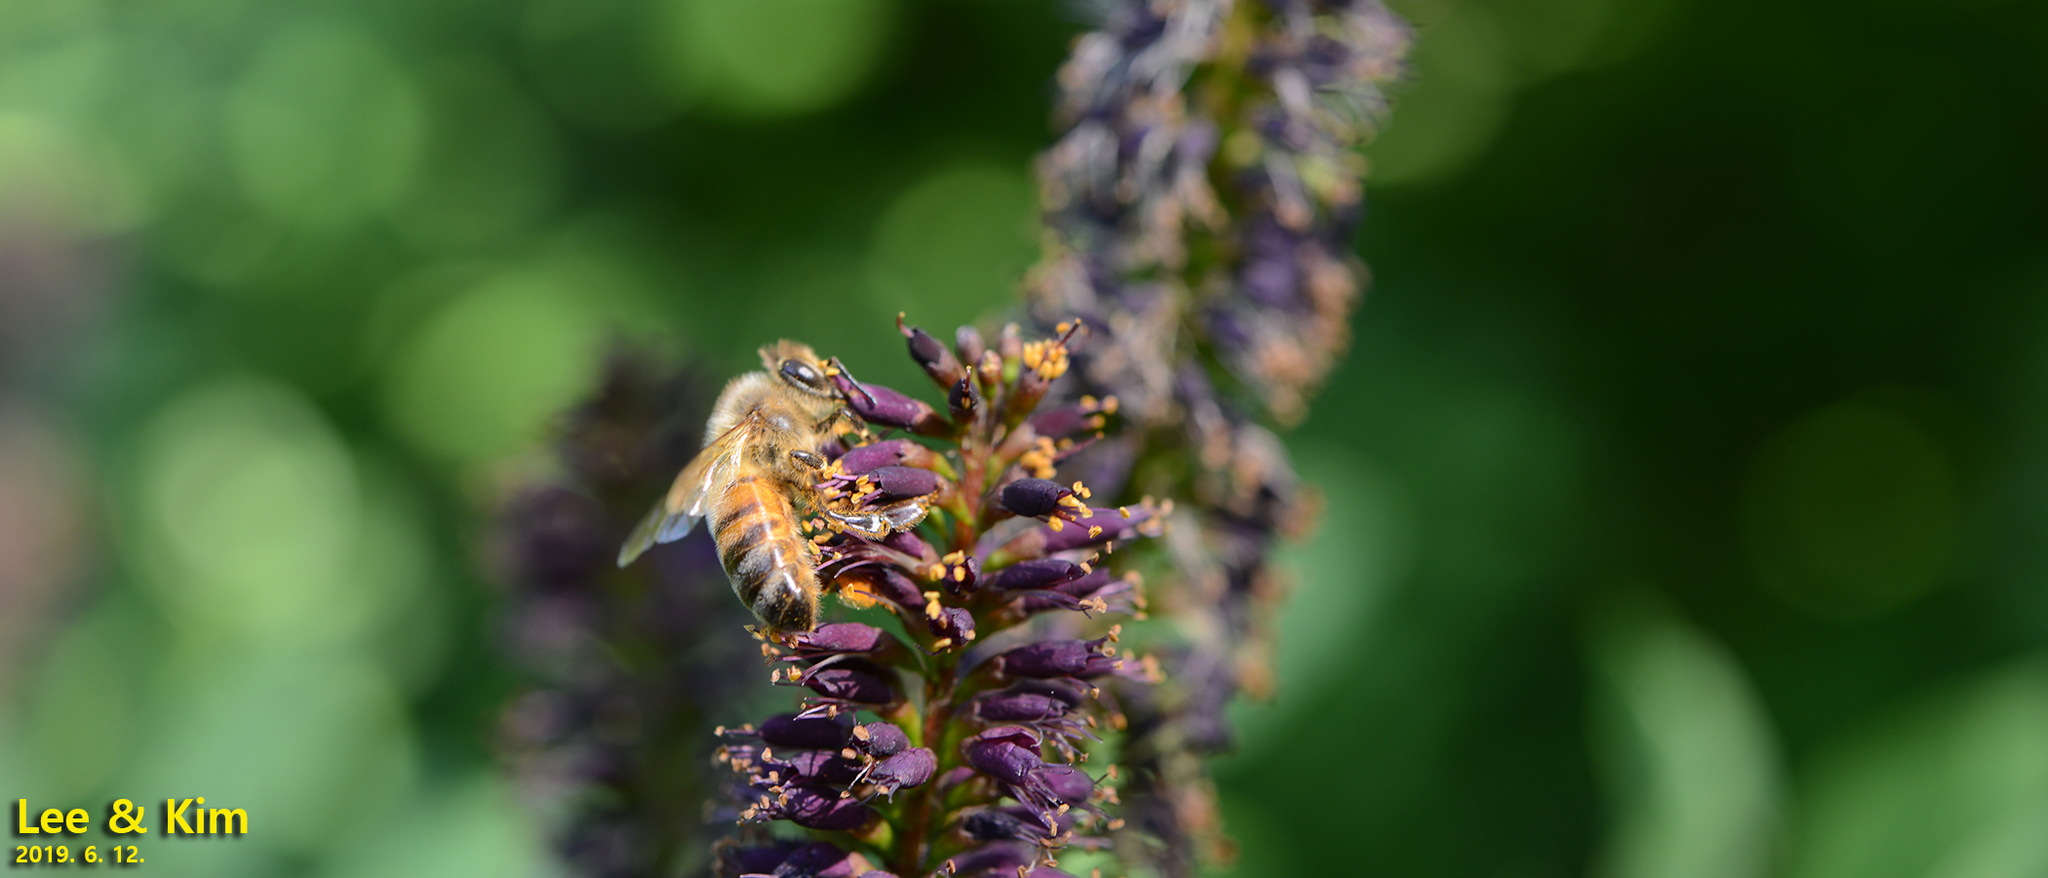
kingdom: Animalia
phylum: Arthropoda
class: Insecta
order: Hymenoptera
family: Apidae
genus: Apis
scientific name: Apis mellifera
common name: Honey bee
